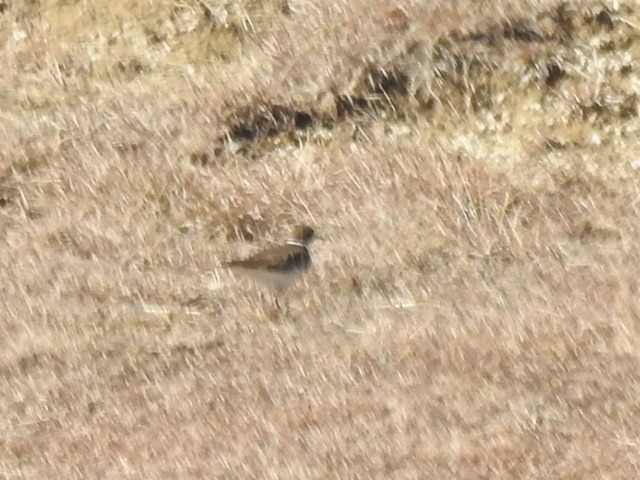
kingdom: Animalia
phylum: Chordata
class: Aves
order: Charadriiformes
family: Charadriidae
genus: Charadrius
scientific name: Charadrius vociferus
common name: Killdeer
